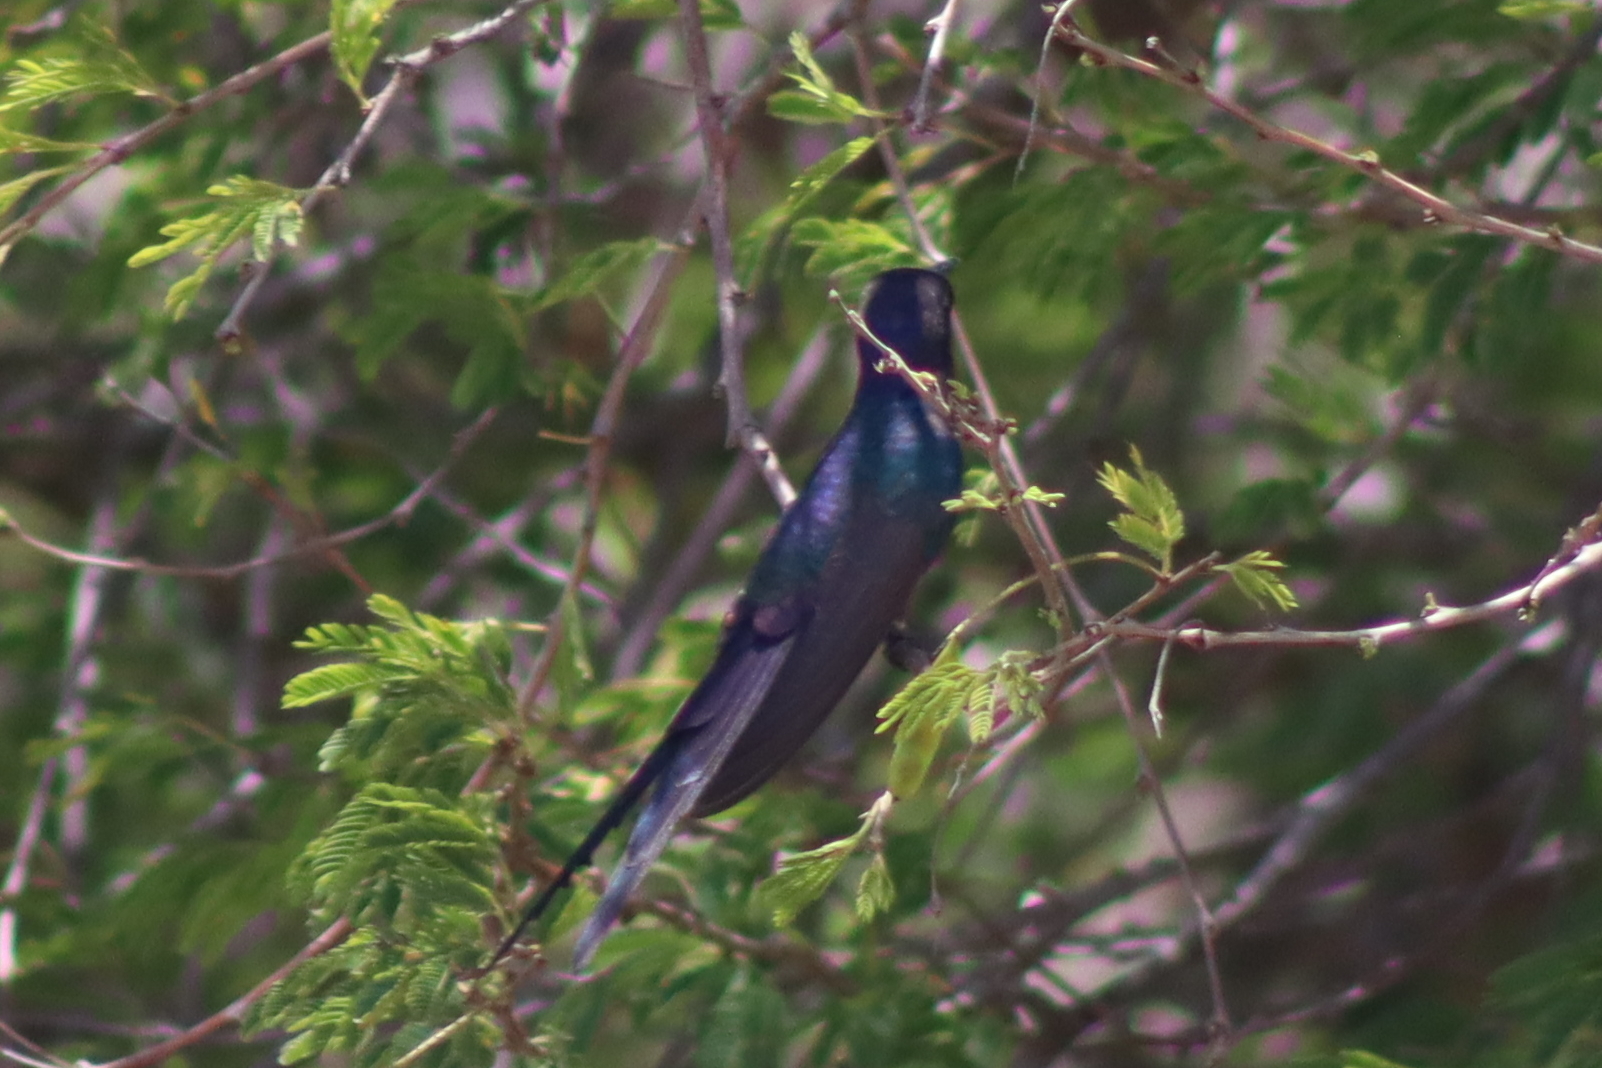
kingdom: Animalia
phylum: Chordata
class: Aves
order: Apodiformes
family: Trochilidae
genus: Eupetomena
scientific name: Eupetomena macroura
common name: Swallow-tailed hummingbird
